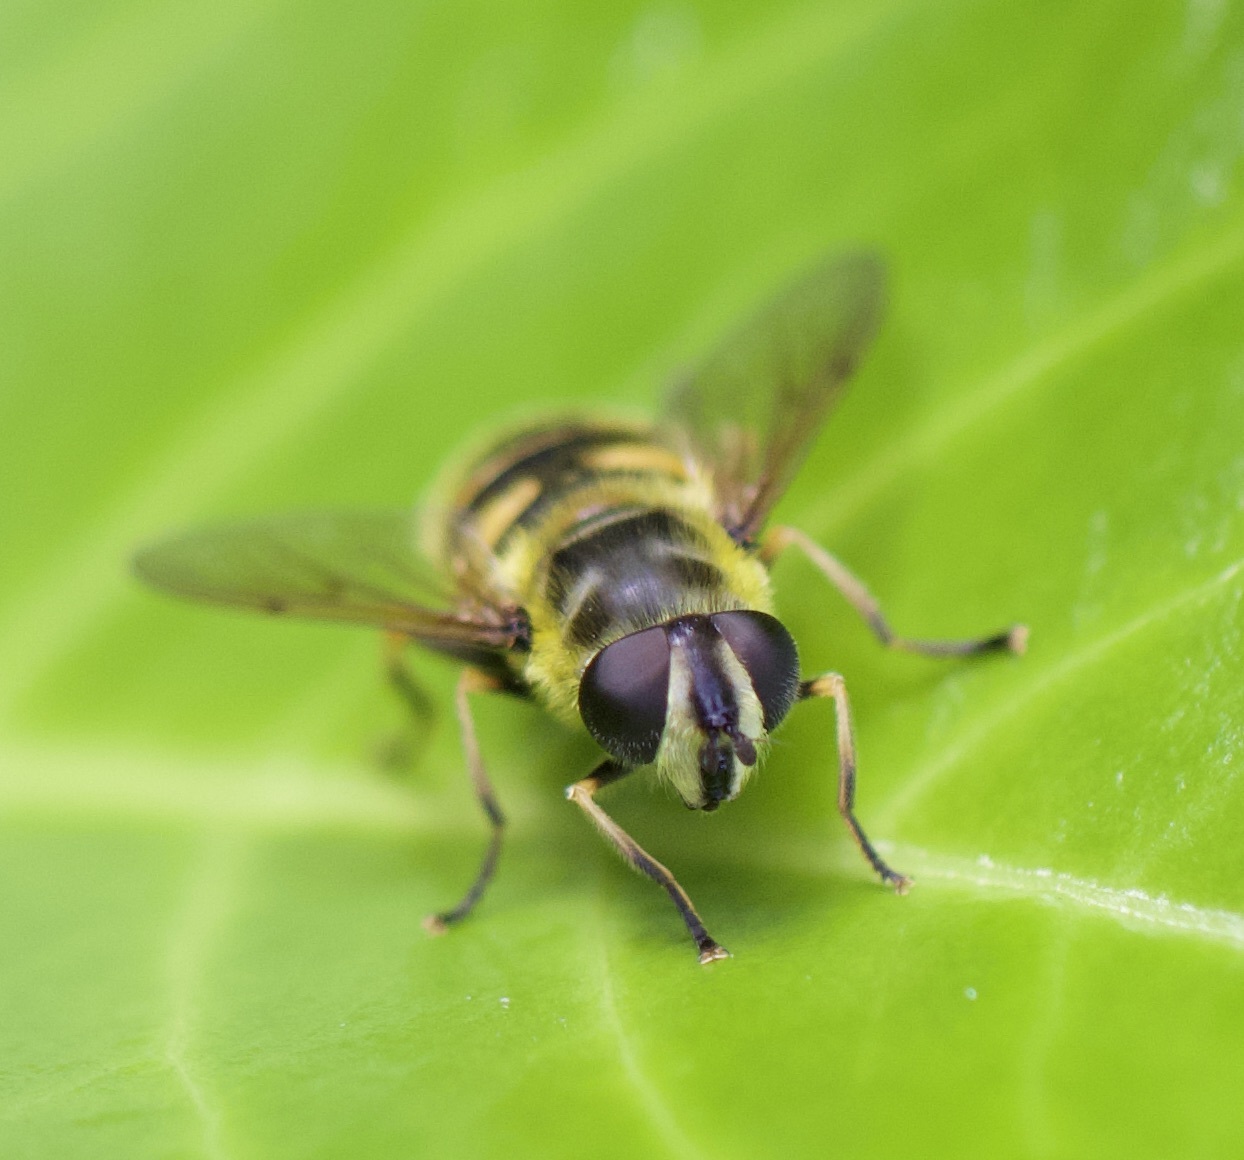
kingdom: Animalia
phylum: Arthropoda
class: Insecta
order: Diptera
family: Syrphidae
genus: Myathropa
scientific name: Myathropa florea
